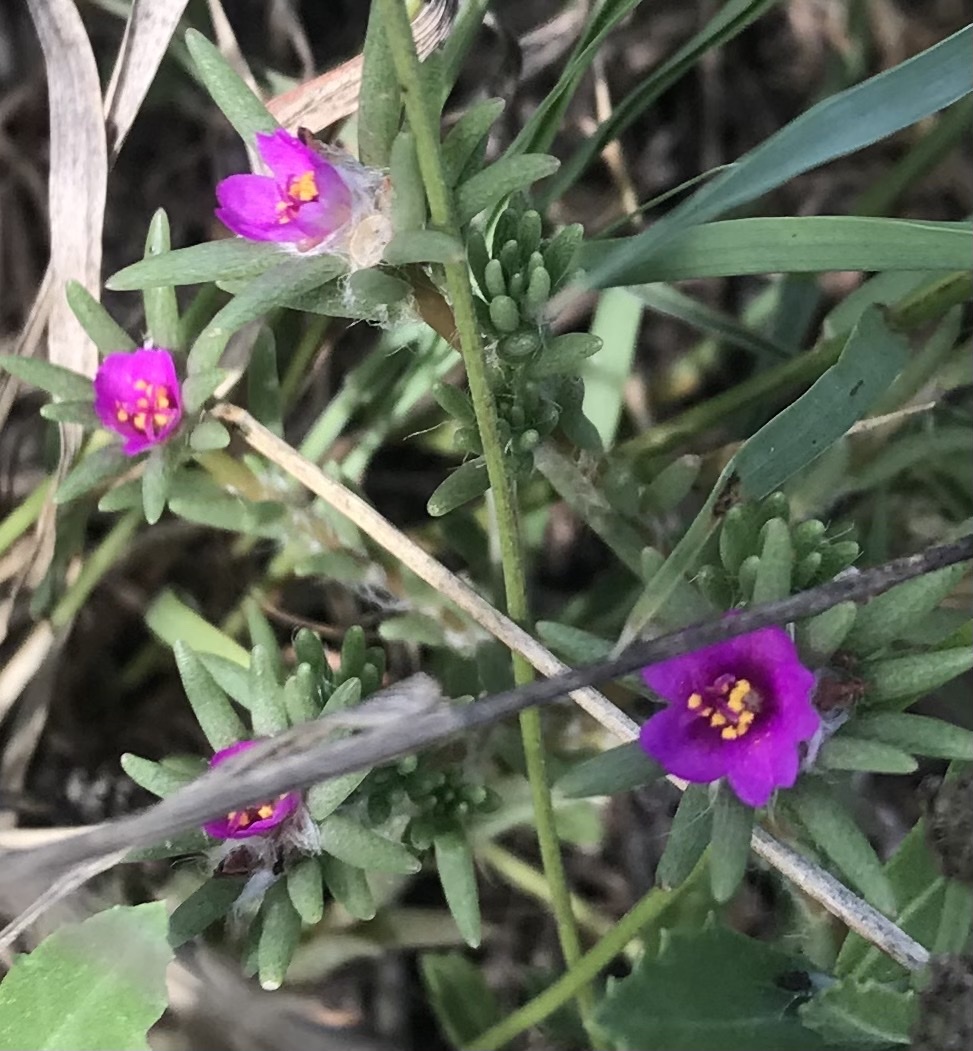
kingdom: Plantae
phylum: Tracheophyta
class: Magnoliopsida
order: Caryophyllales
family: Portulacaceae
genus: Portulaca
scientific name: Portulaca pilosa
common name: Kiss me quick
